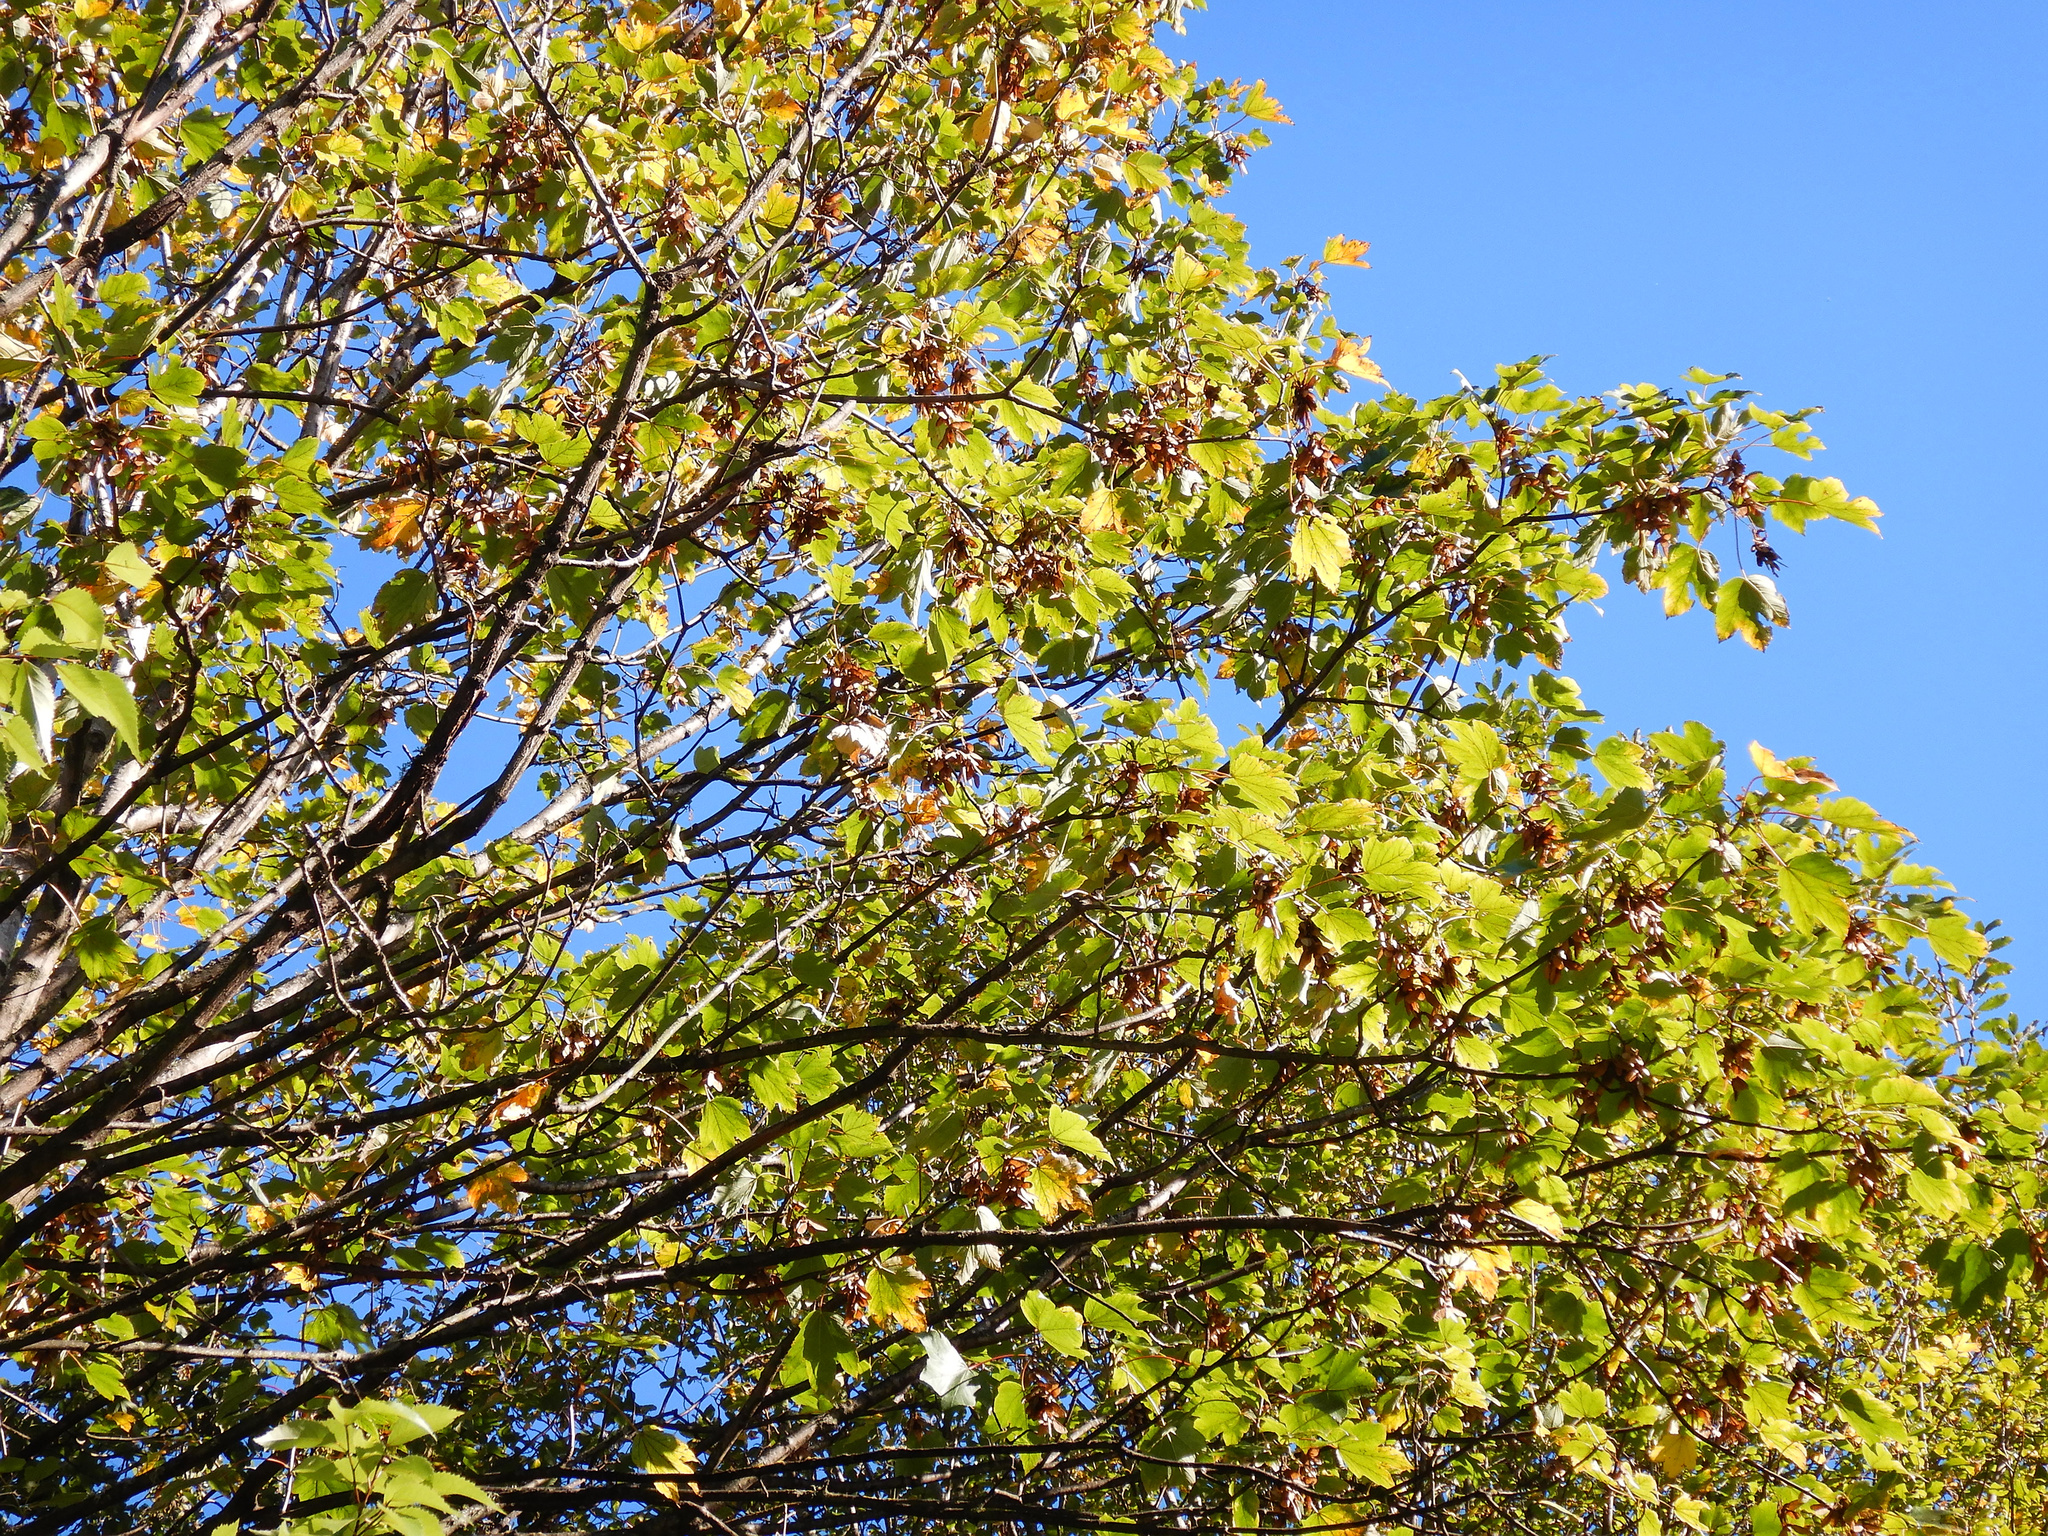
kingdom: Plantae
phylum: Tracheophyta
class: Magnoliopsida
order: Sapindales
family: Sapindaceae
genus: Acer
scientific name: Acer pseudoplatanus
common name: Sycamore
